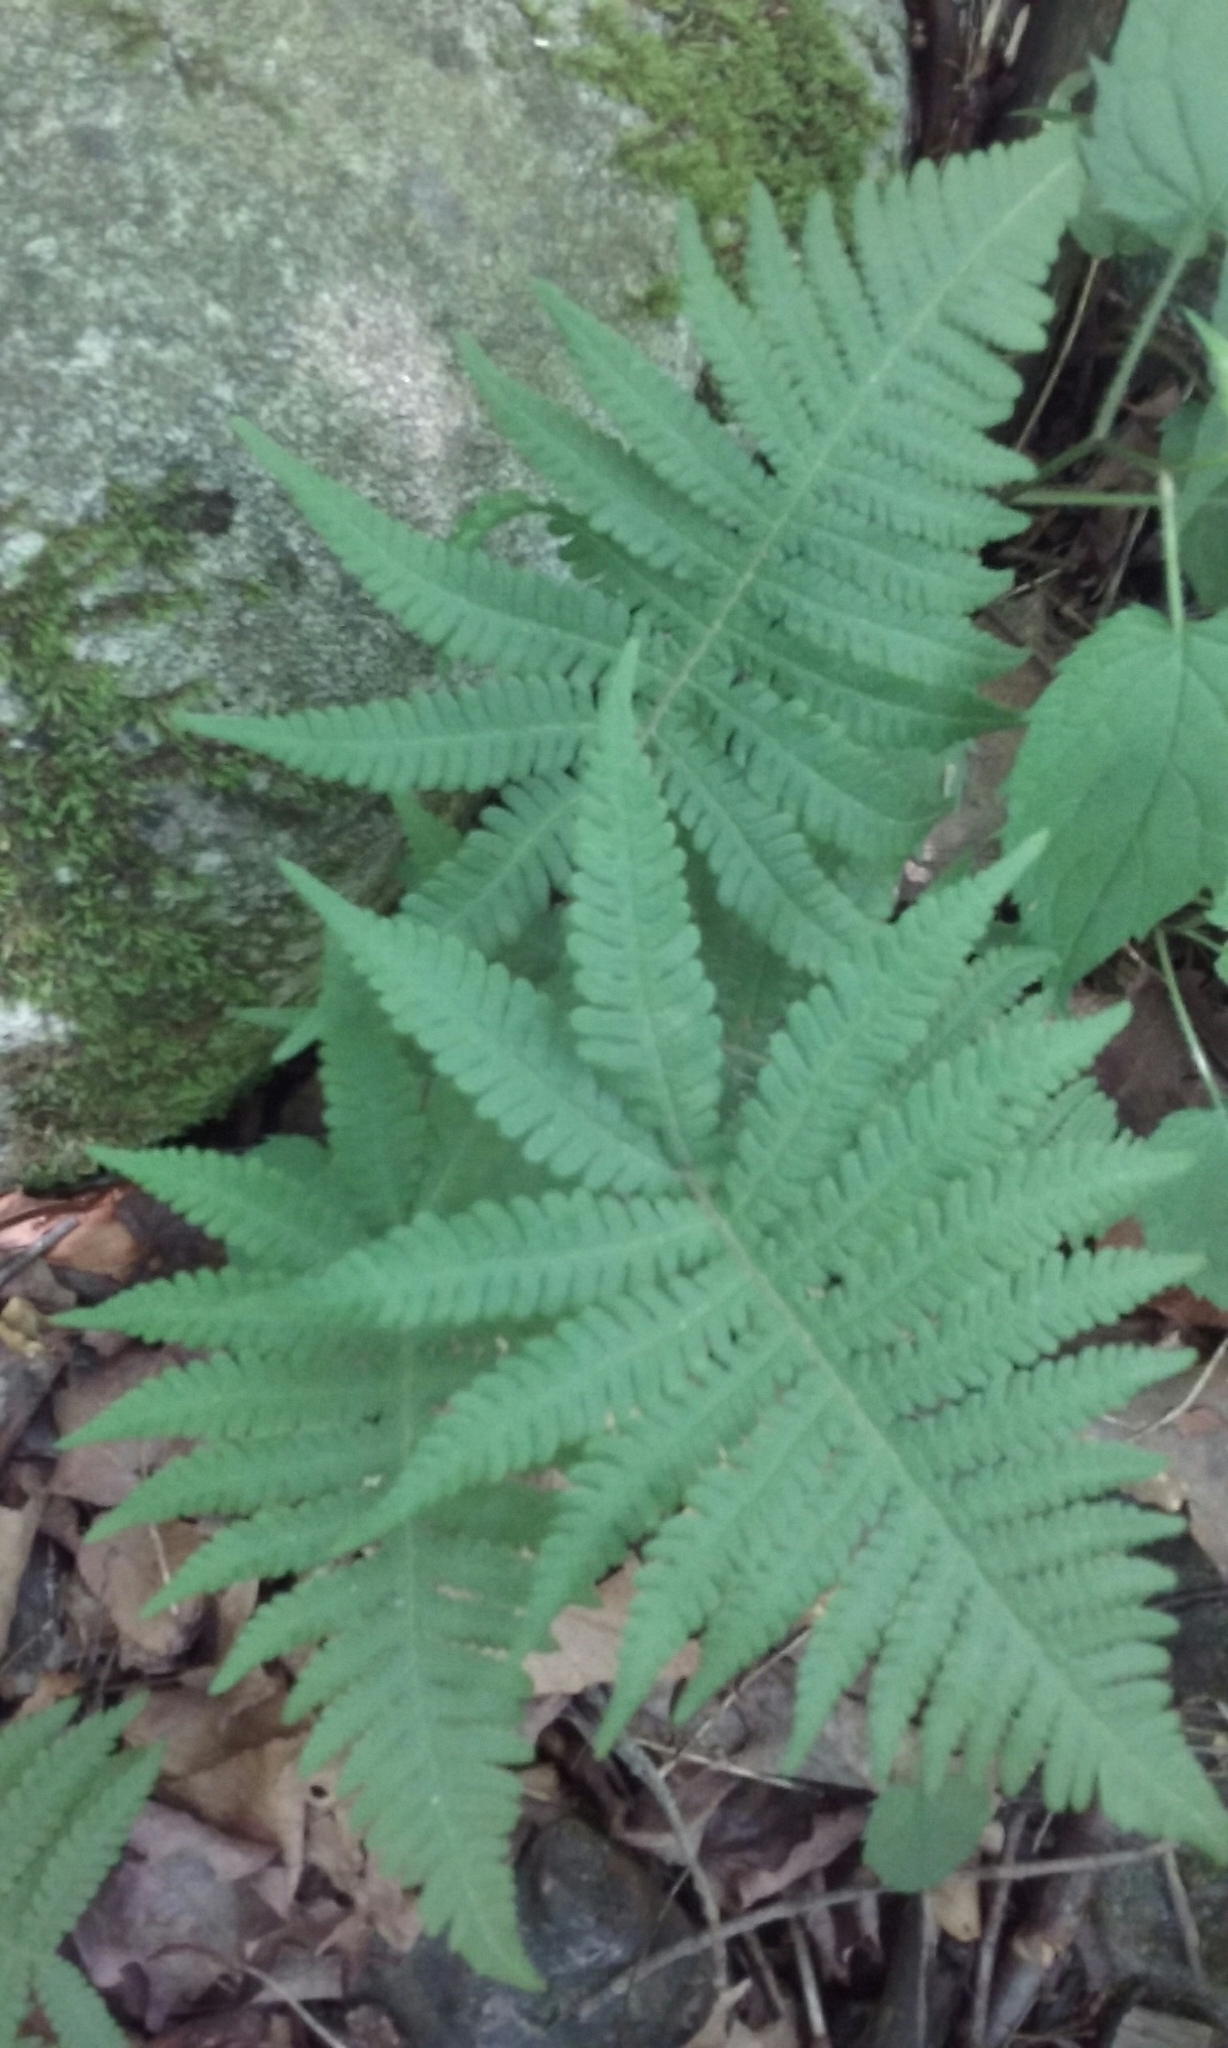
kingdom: Plantae
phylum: Tracheophyta
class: Polypodiopsida
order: Polypodiales
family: Thelypteridaceae
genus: Phegopteris
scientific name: Phegopteris connectilis
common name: Beech fern
